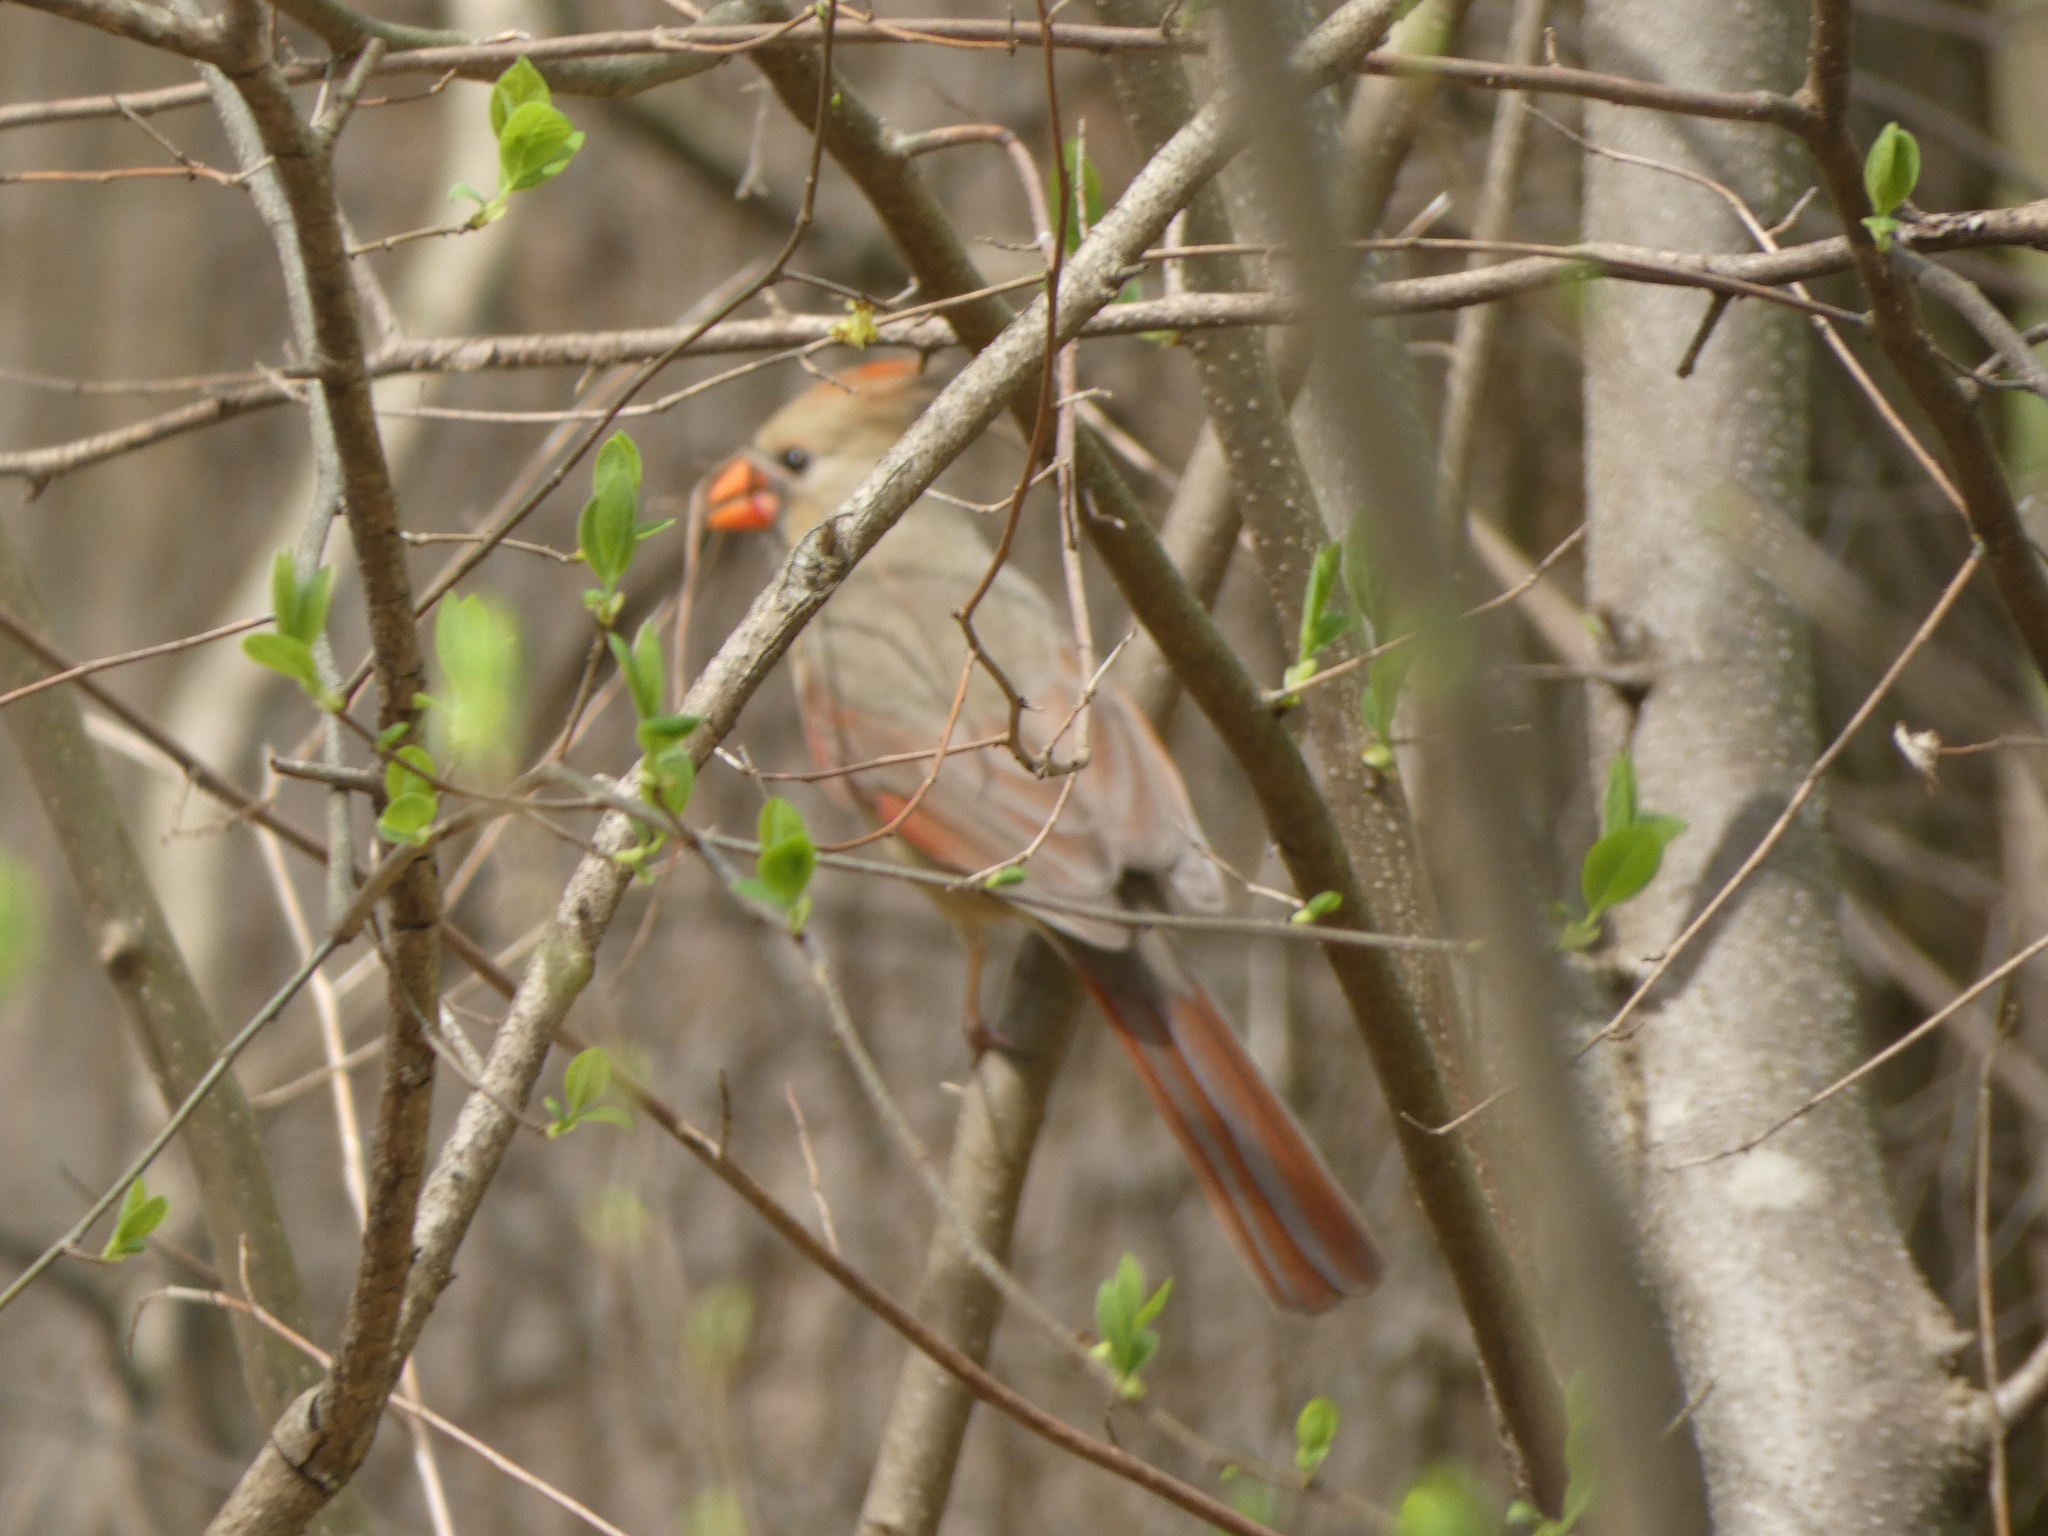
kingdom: Animalia
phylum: Chordata
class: Aves
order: Passeriformes
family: Cardinalidae
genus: Cardinalis
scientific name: Cardinalis cardinalis
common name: Northern cardinal
